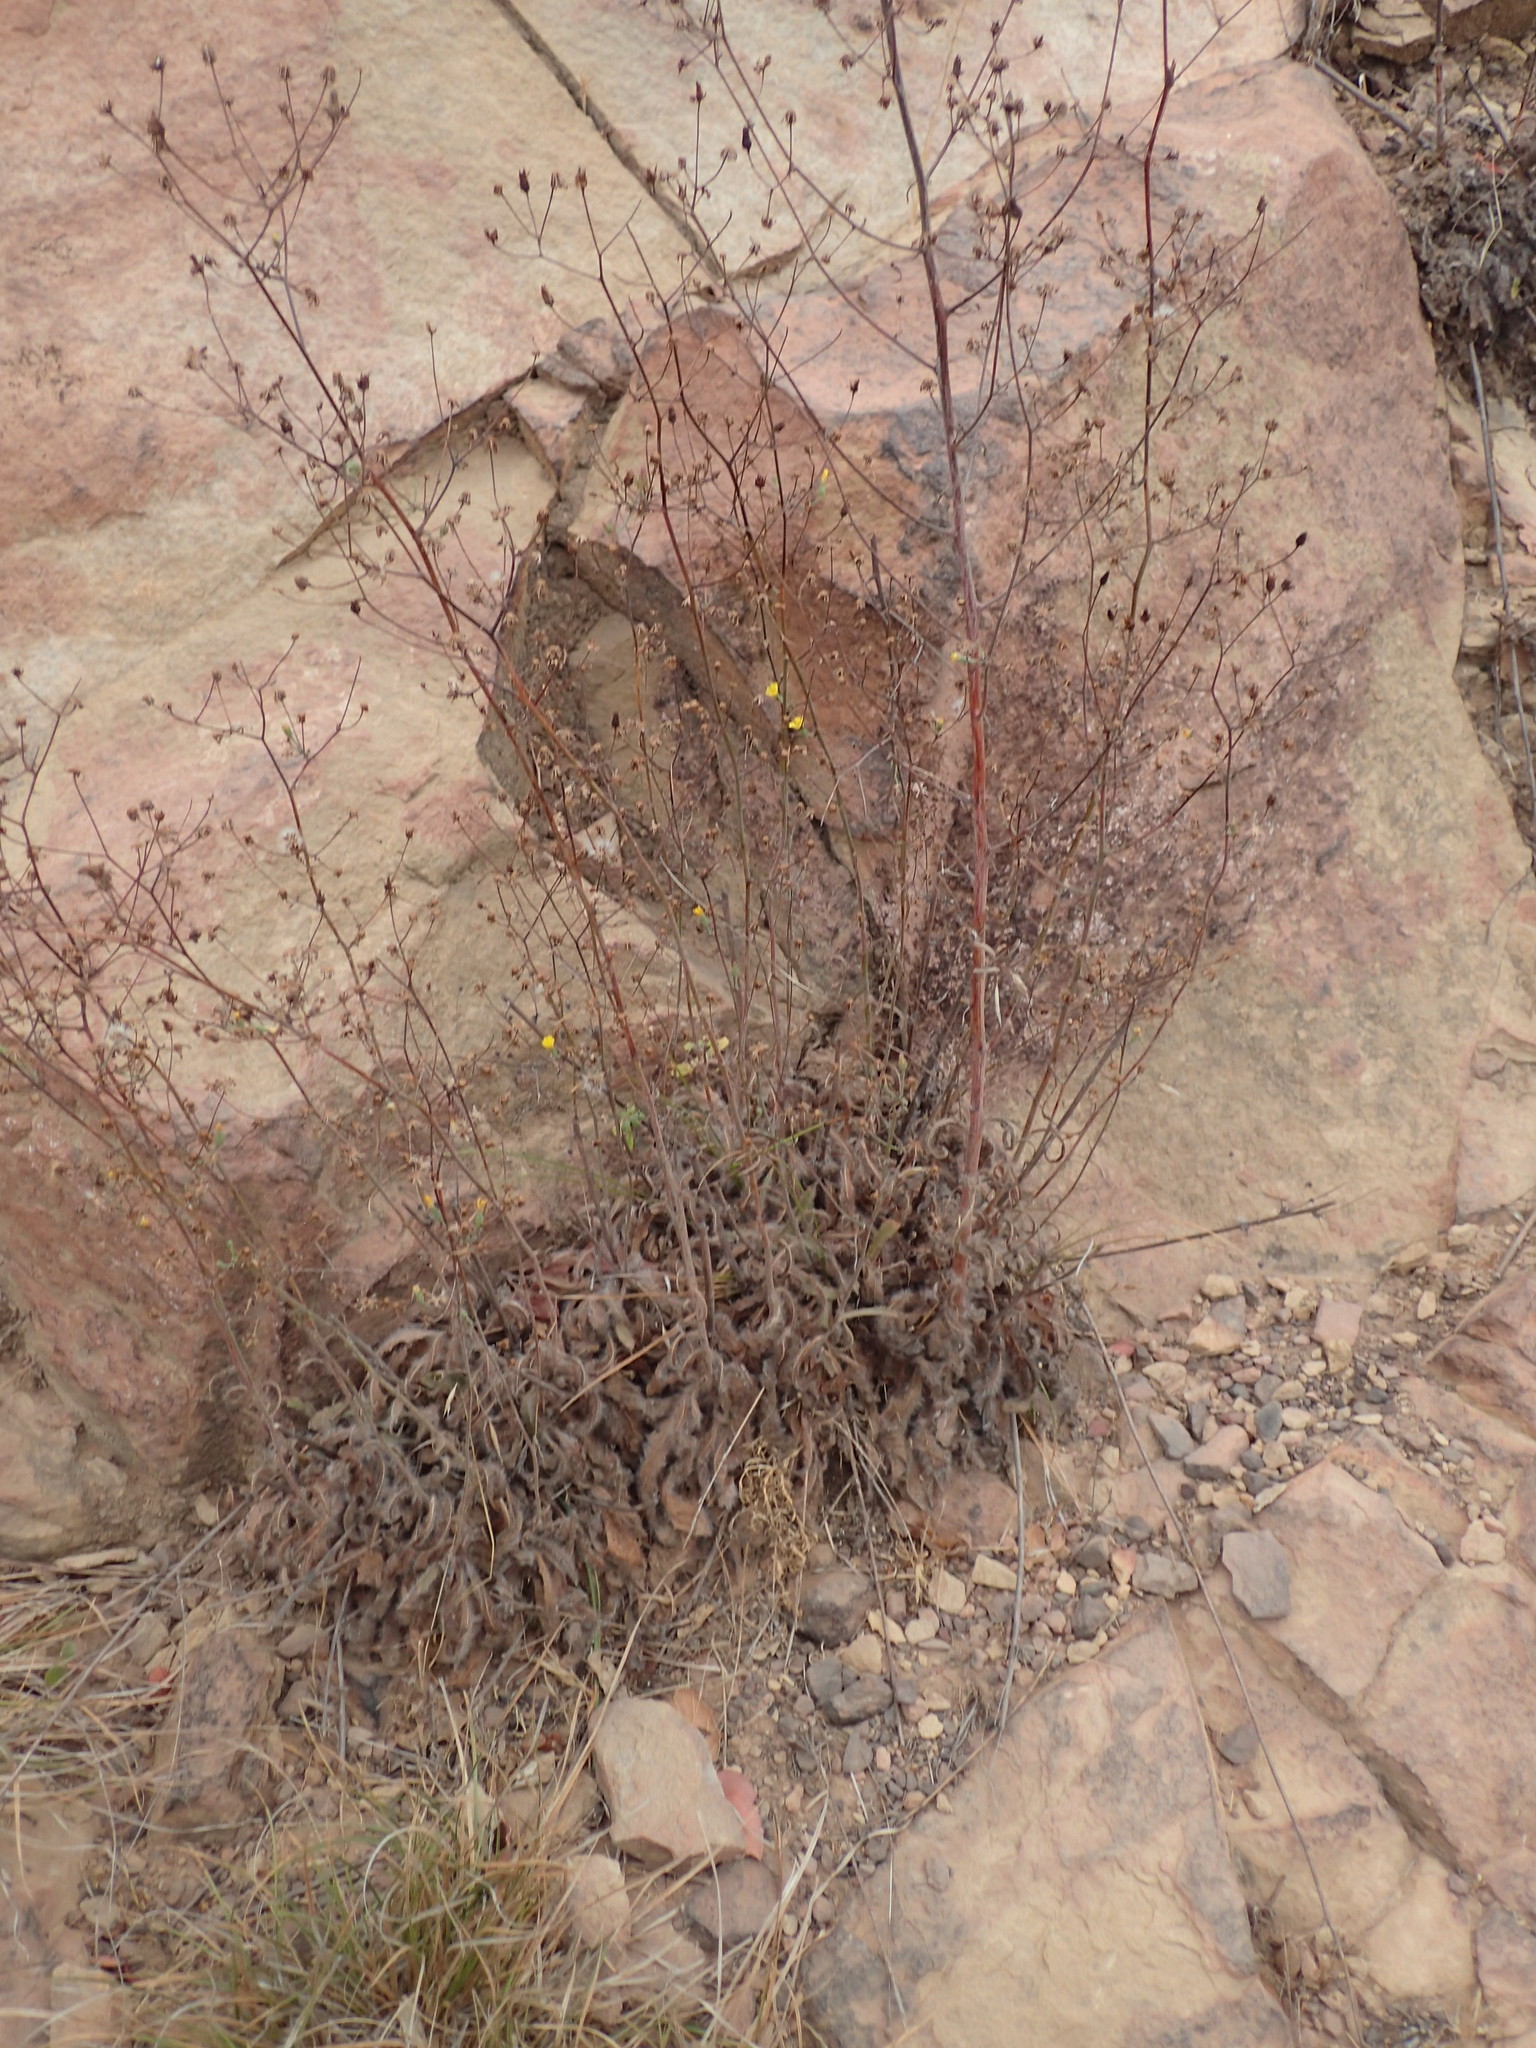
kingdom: Plantae
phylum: Tracheophyta
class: Magnoliopsida
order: Asterales
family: Asteraceae
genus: Hieracium
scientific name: Hieracium argutum
